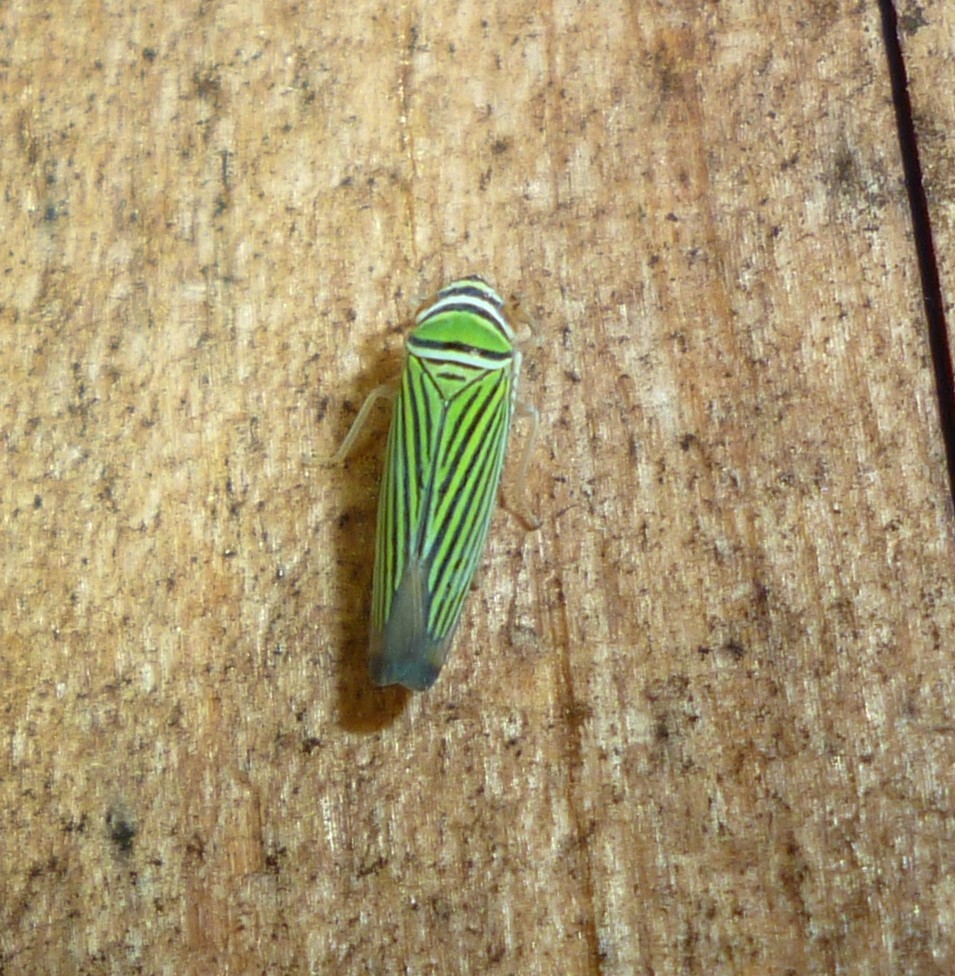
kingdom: Animalia
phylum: Arthropoda
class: Insecta
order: Hemiptera
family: Cicadellidae
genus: Tylozygus
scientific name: Tylozygus bifidus
